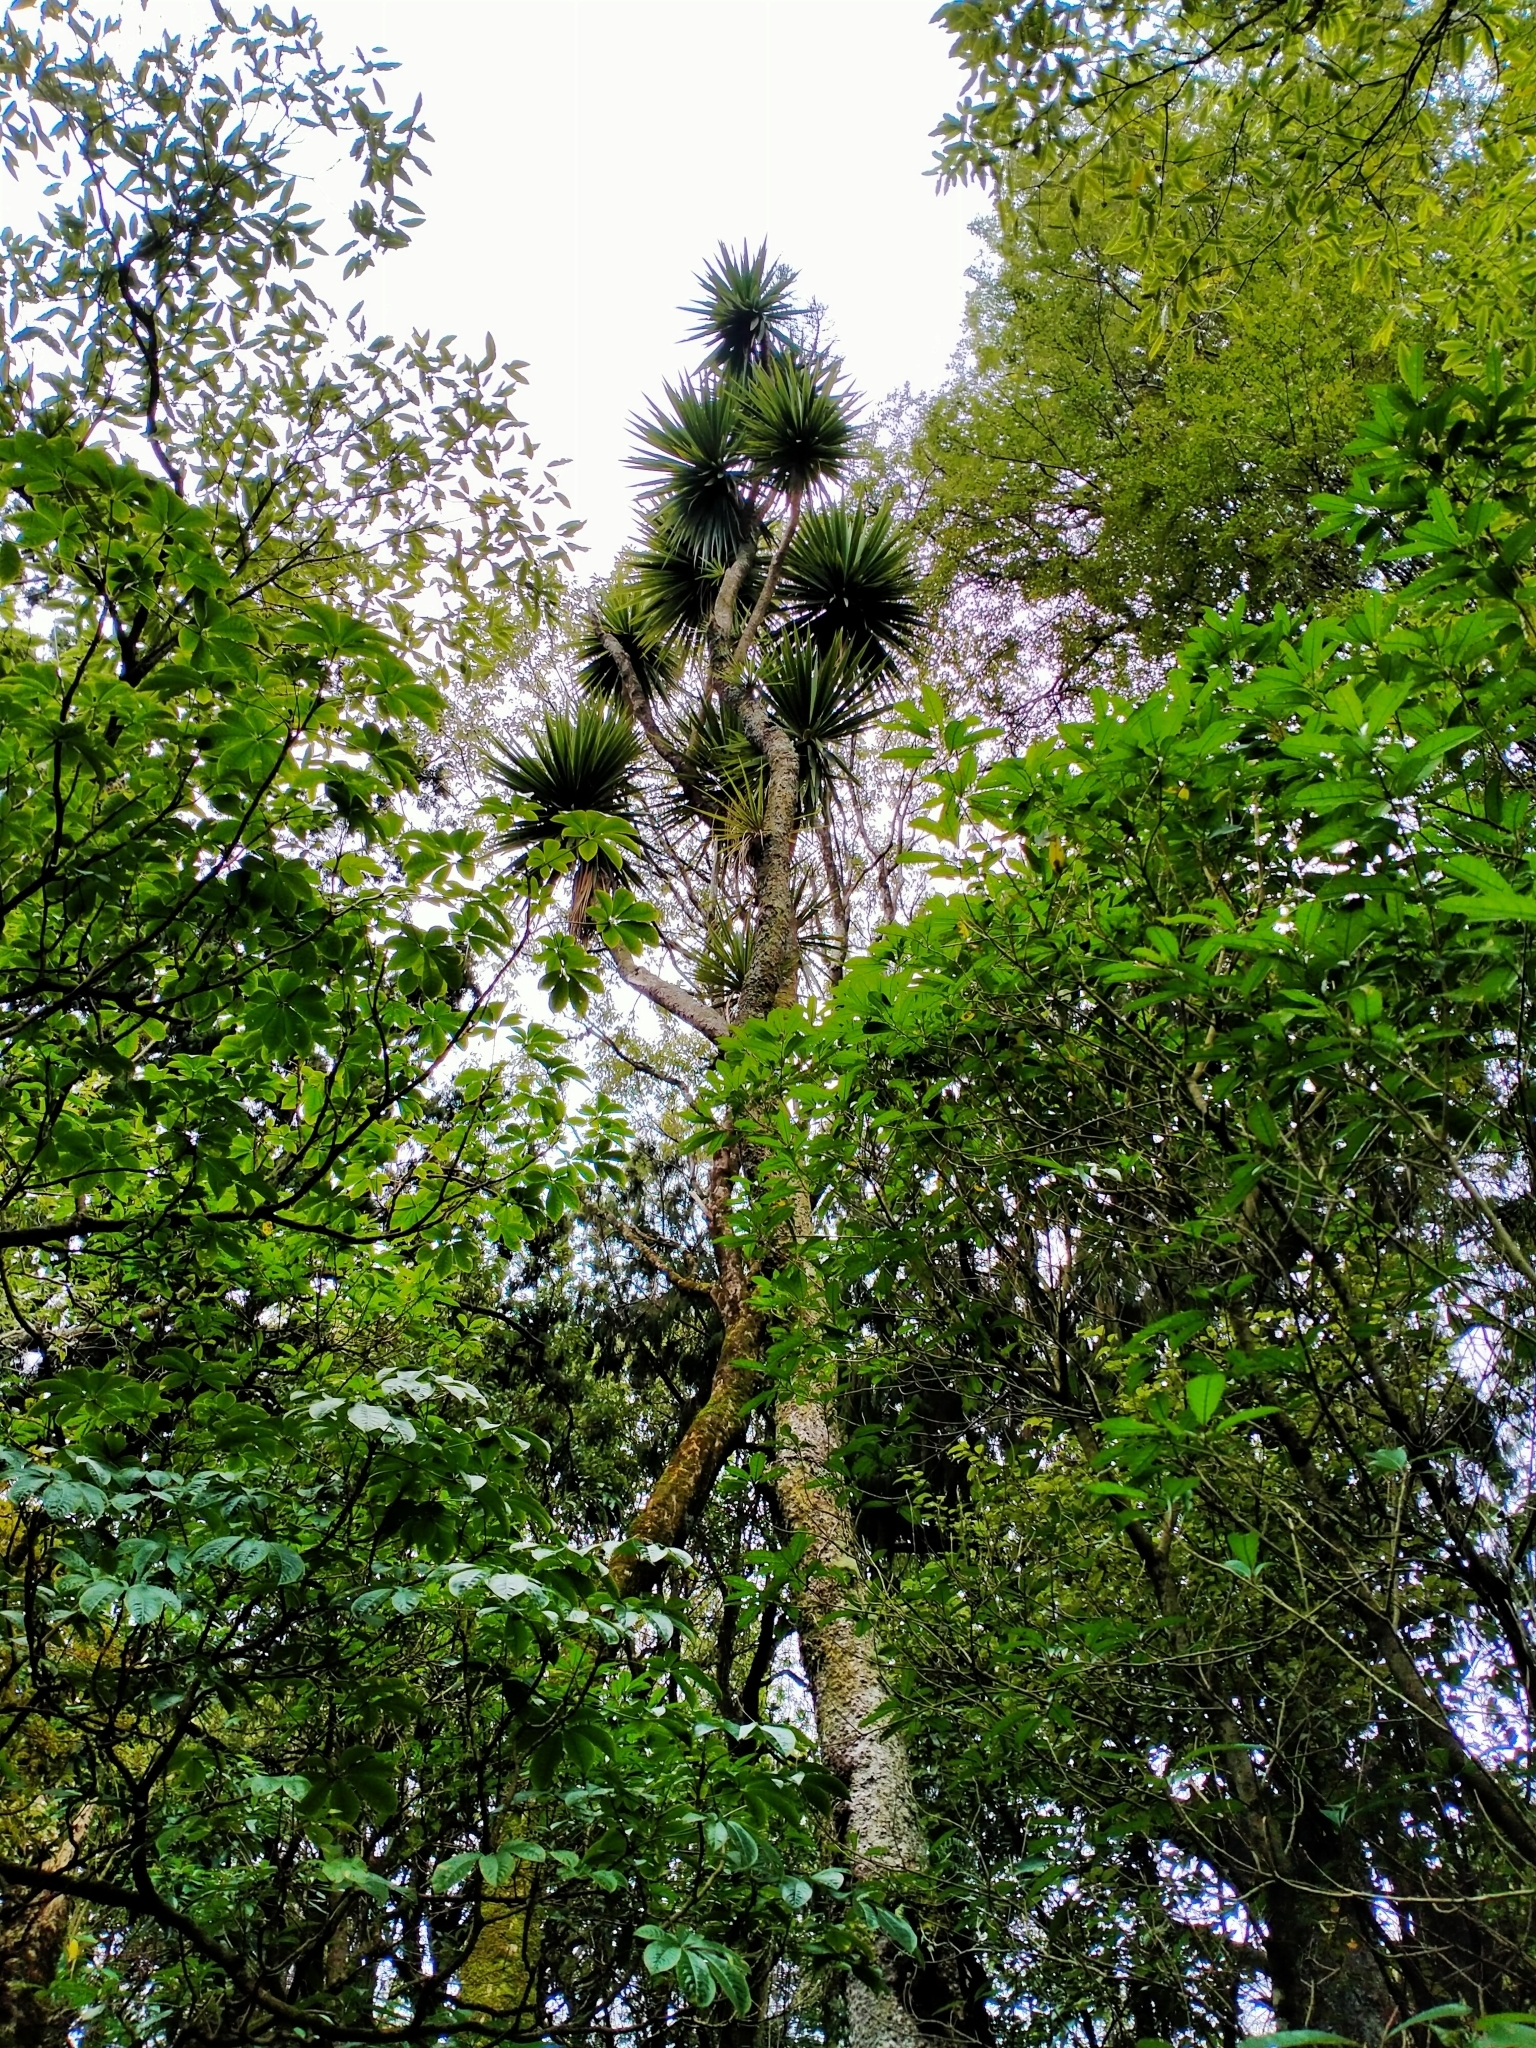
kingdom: Plantae
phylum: Tracheophyta
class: Liliopsida
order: Asparagales
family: Asparagaceae
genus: Cordyline
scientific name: Cordyline australis
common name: Cabbage-palm
